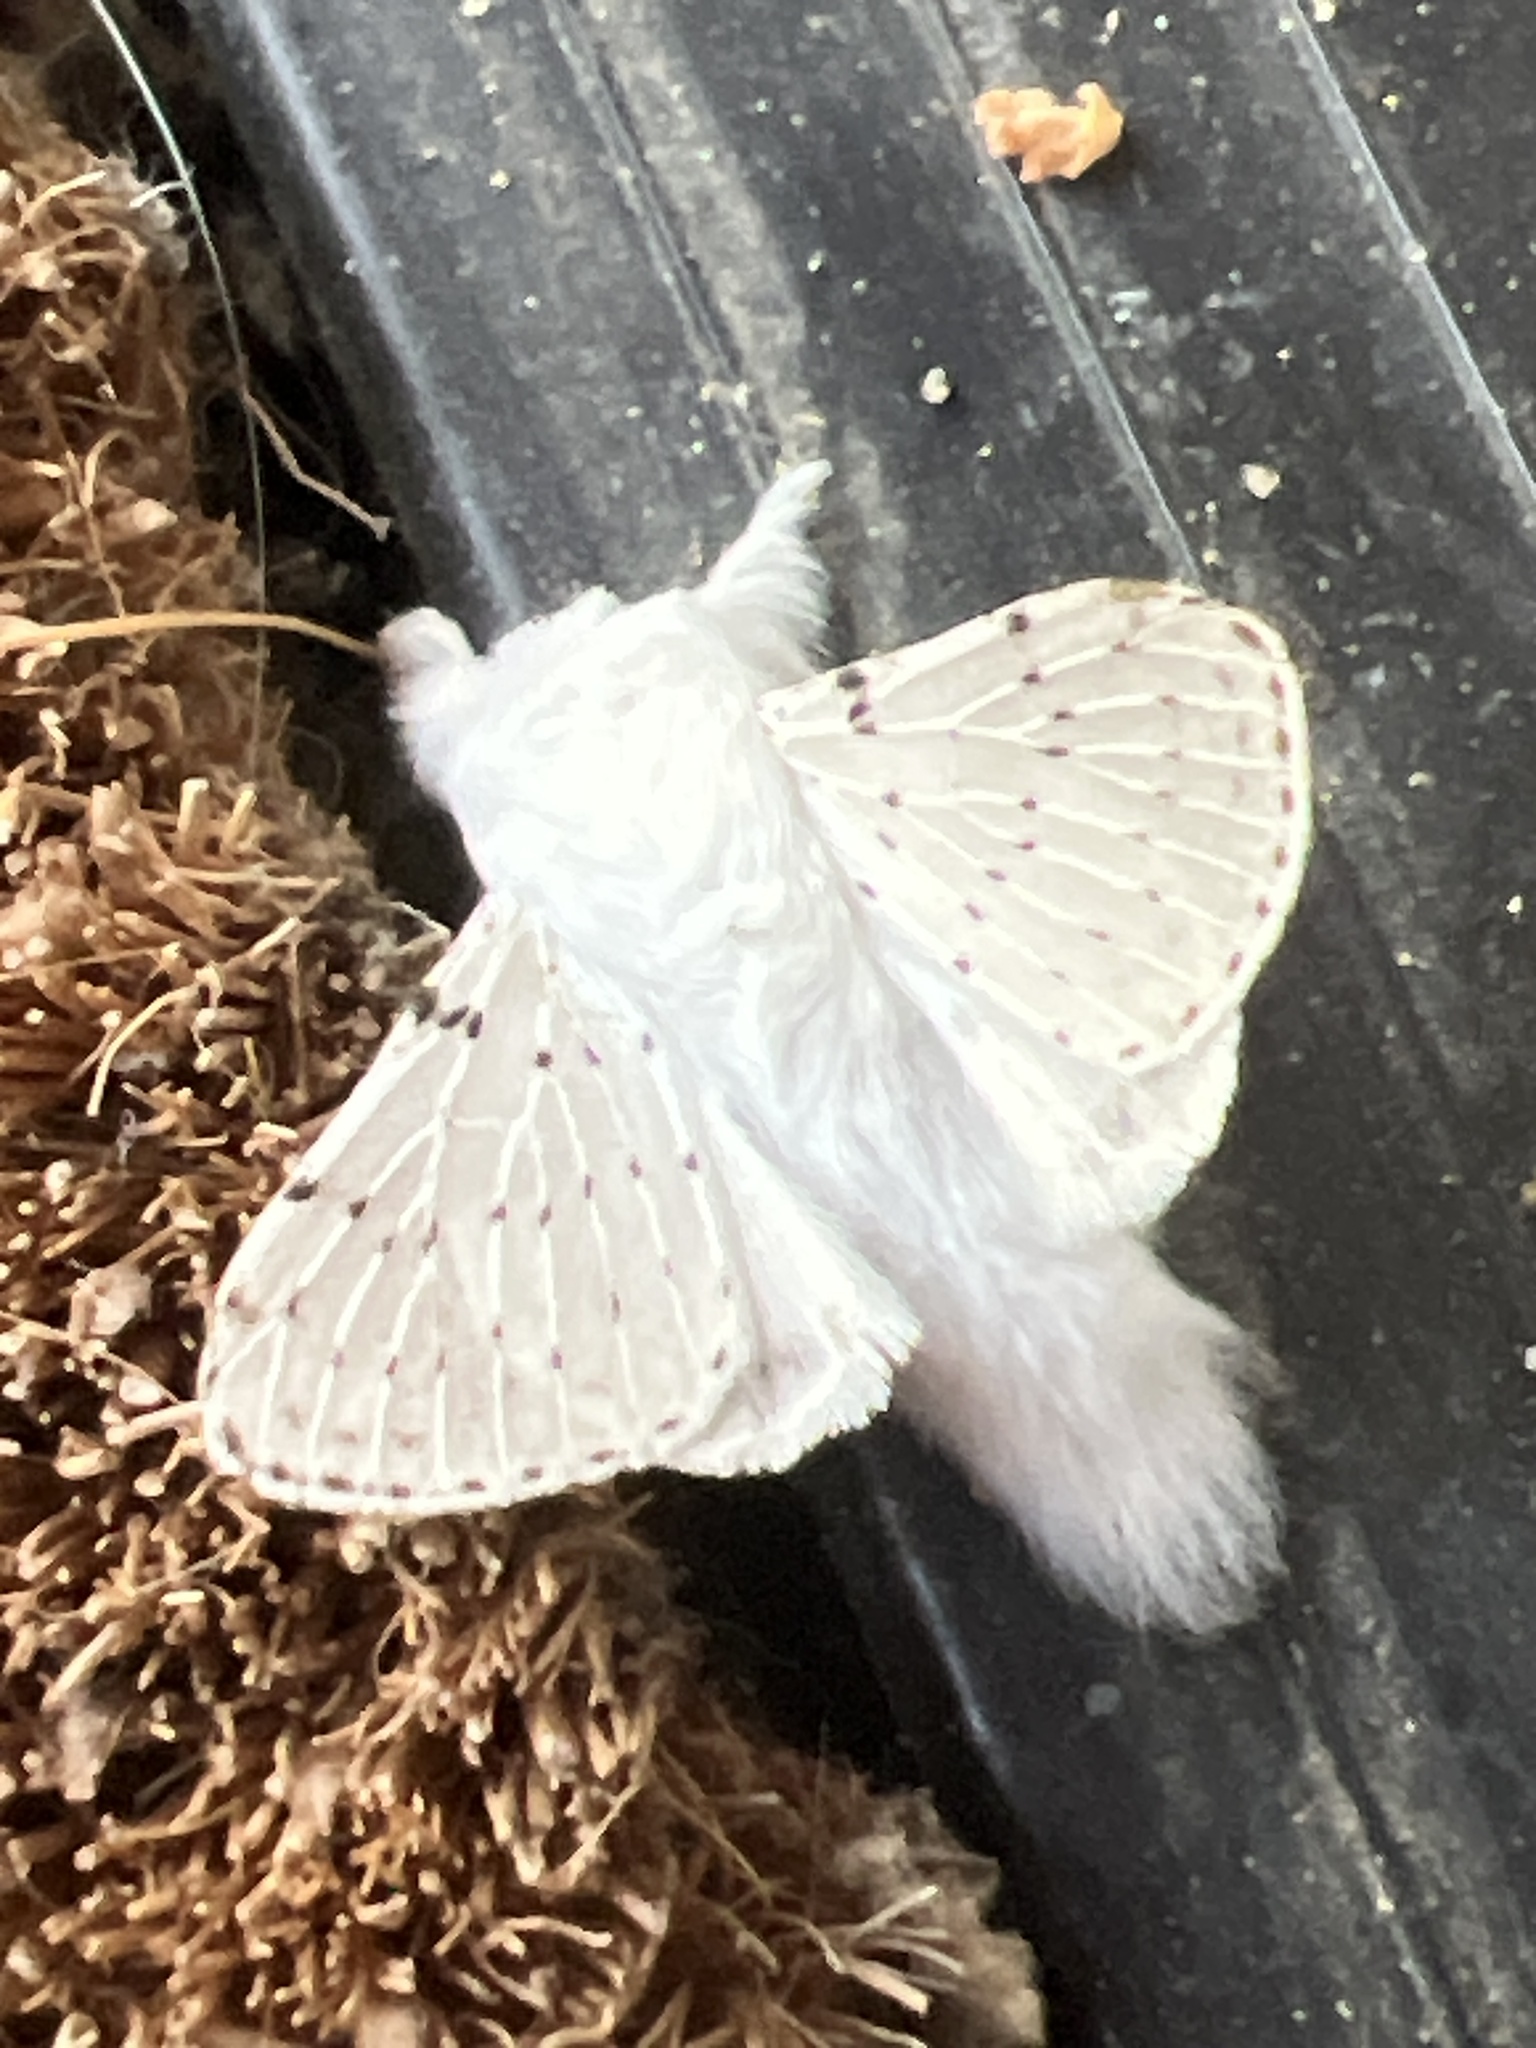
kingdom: Animalia
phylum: Arthropoda
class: Insecta
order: Lepidoptera
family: Lasiocampidae
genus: Artace
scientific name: Artace cribrarius
